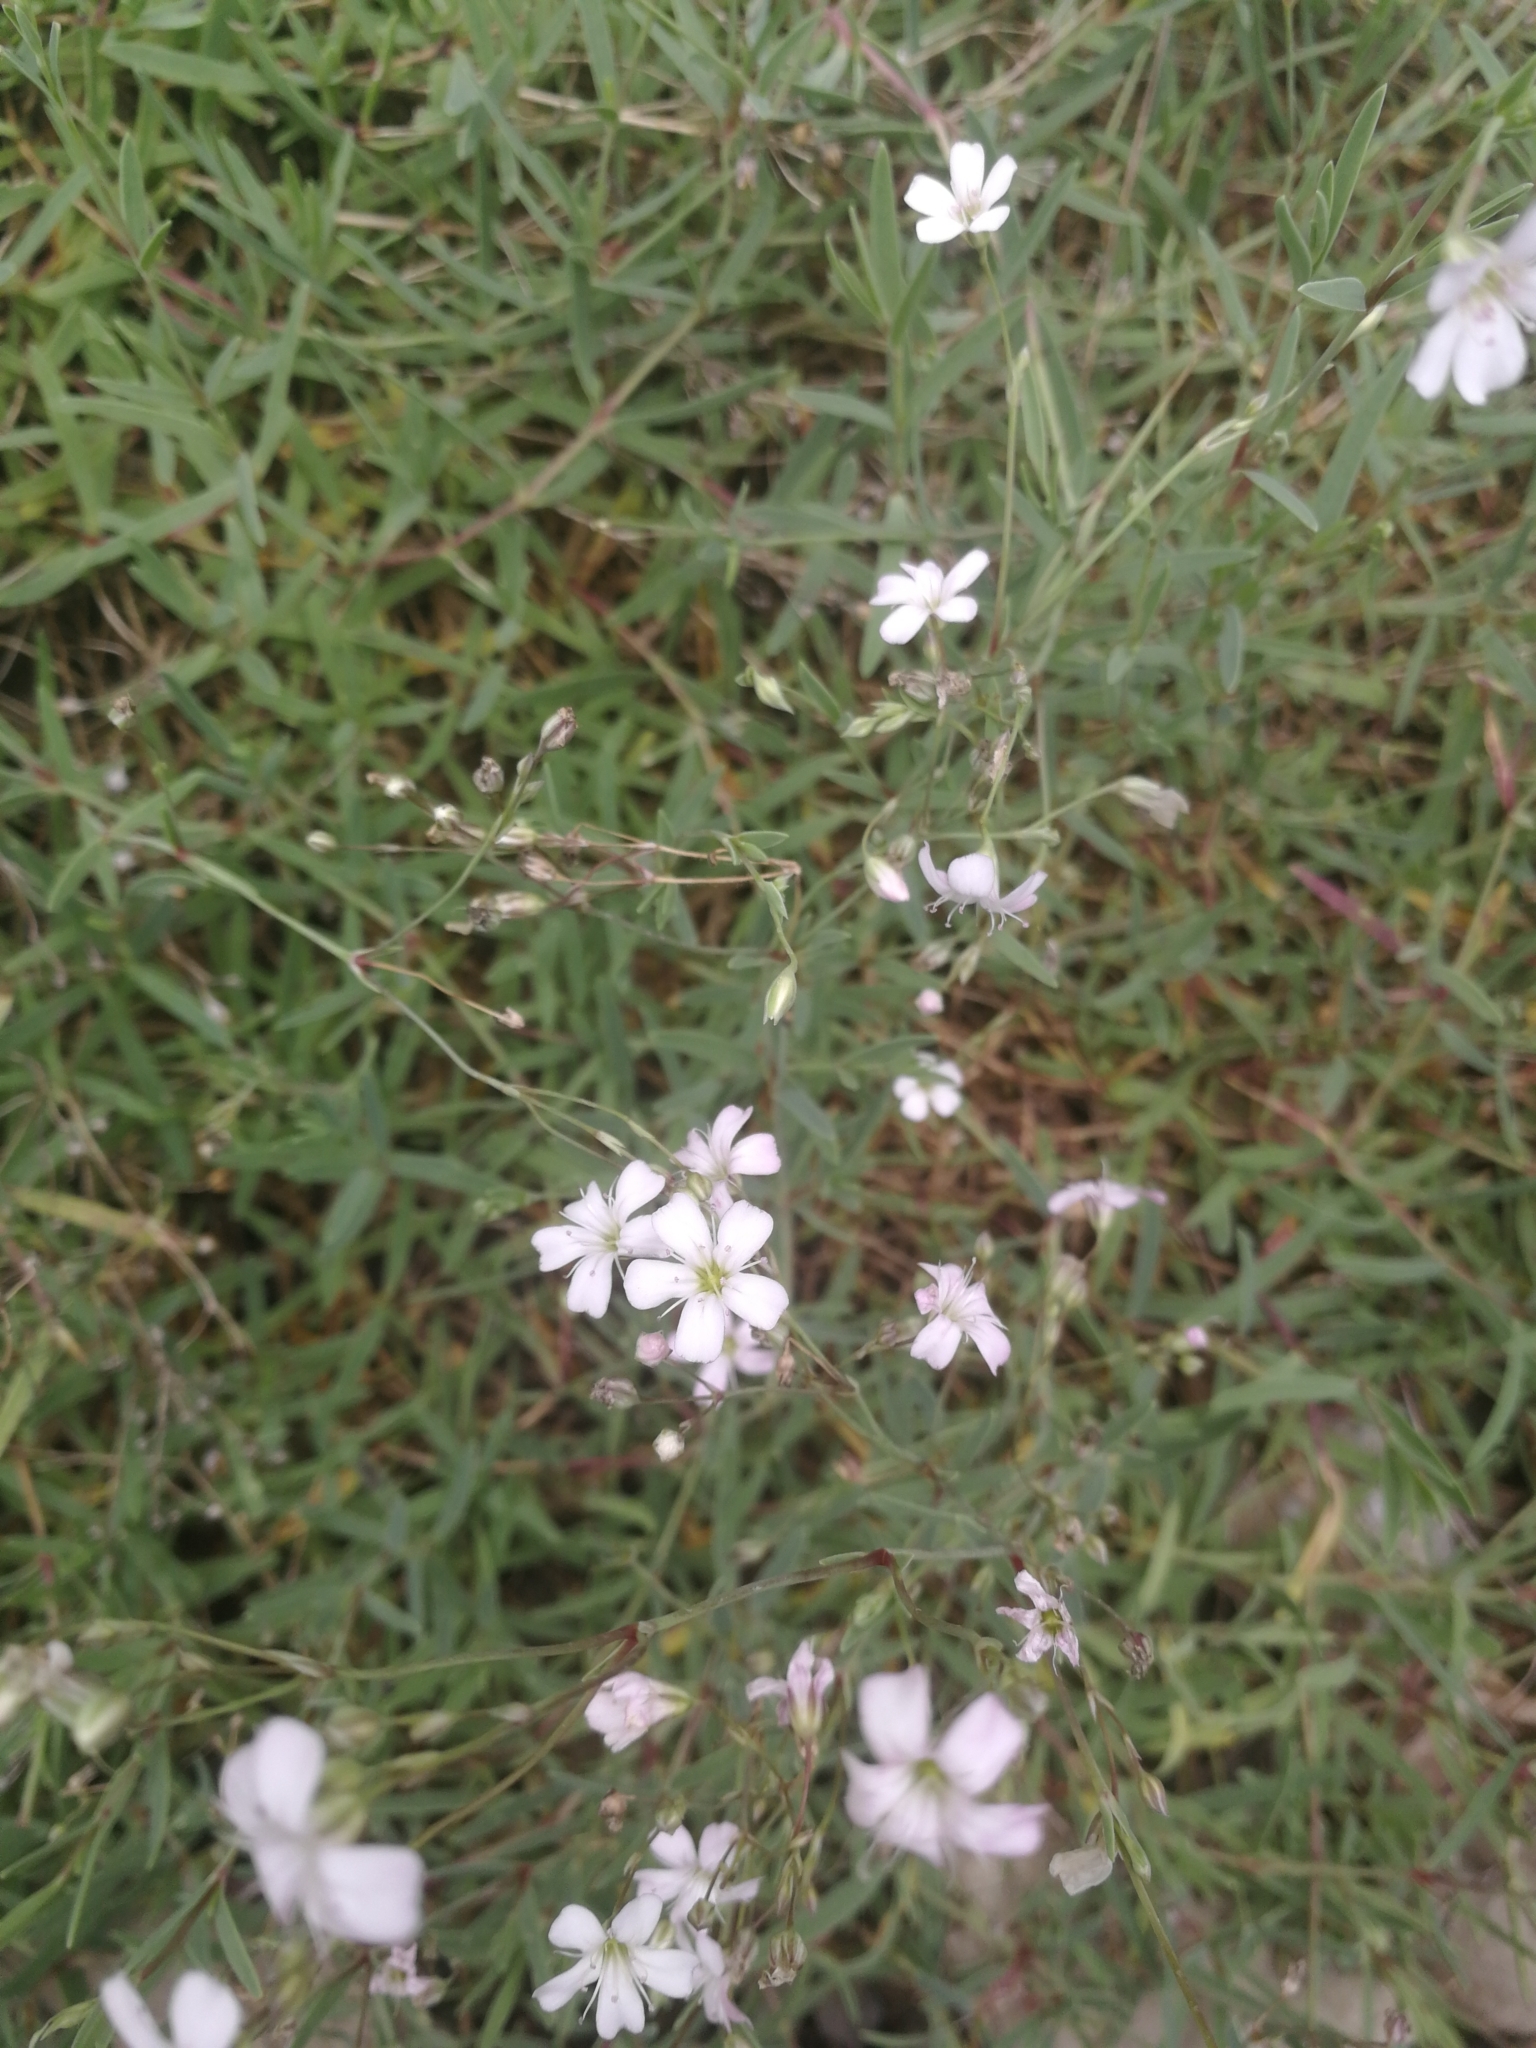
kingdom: Plantae
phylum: Tracheophyta
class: Magnoliopsida
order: Caryophyllales
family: Caryophyllaceae
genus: Gypsophila
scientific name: Gypsophila repens
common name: Creeping baby's-breath
